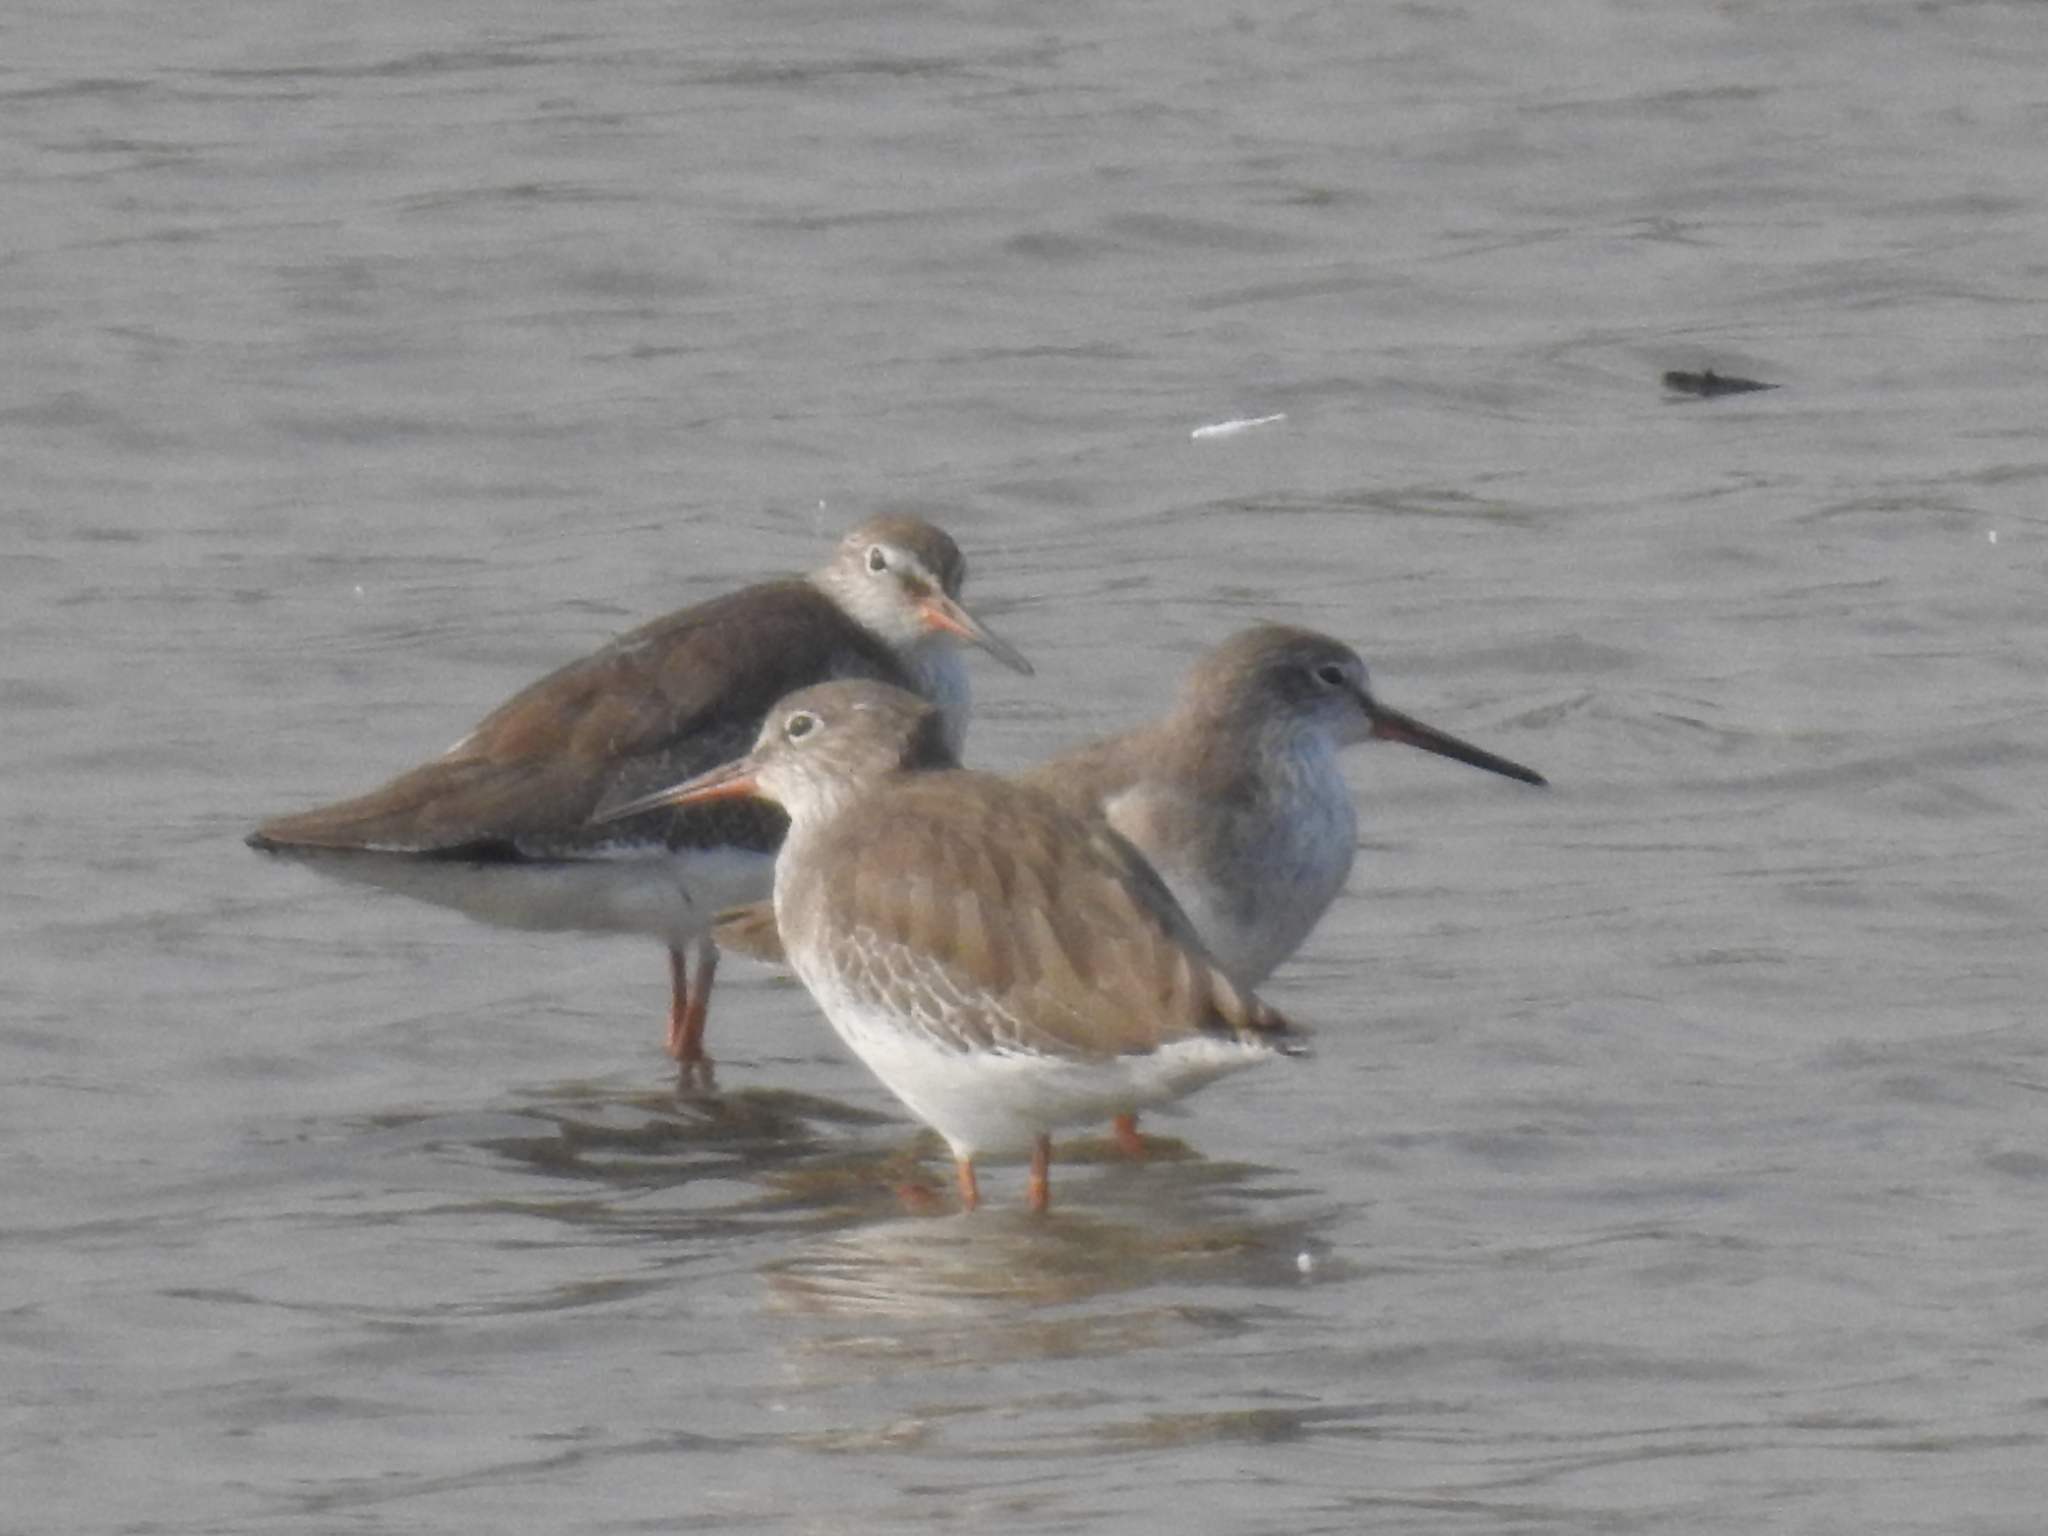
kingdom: Animalia
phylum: Chordata
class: Aves
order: Charadriiformes
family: Scolopacidae
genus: Tringa
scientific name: Tringa totanus
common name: Common redshank
